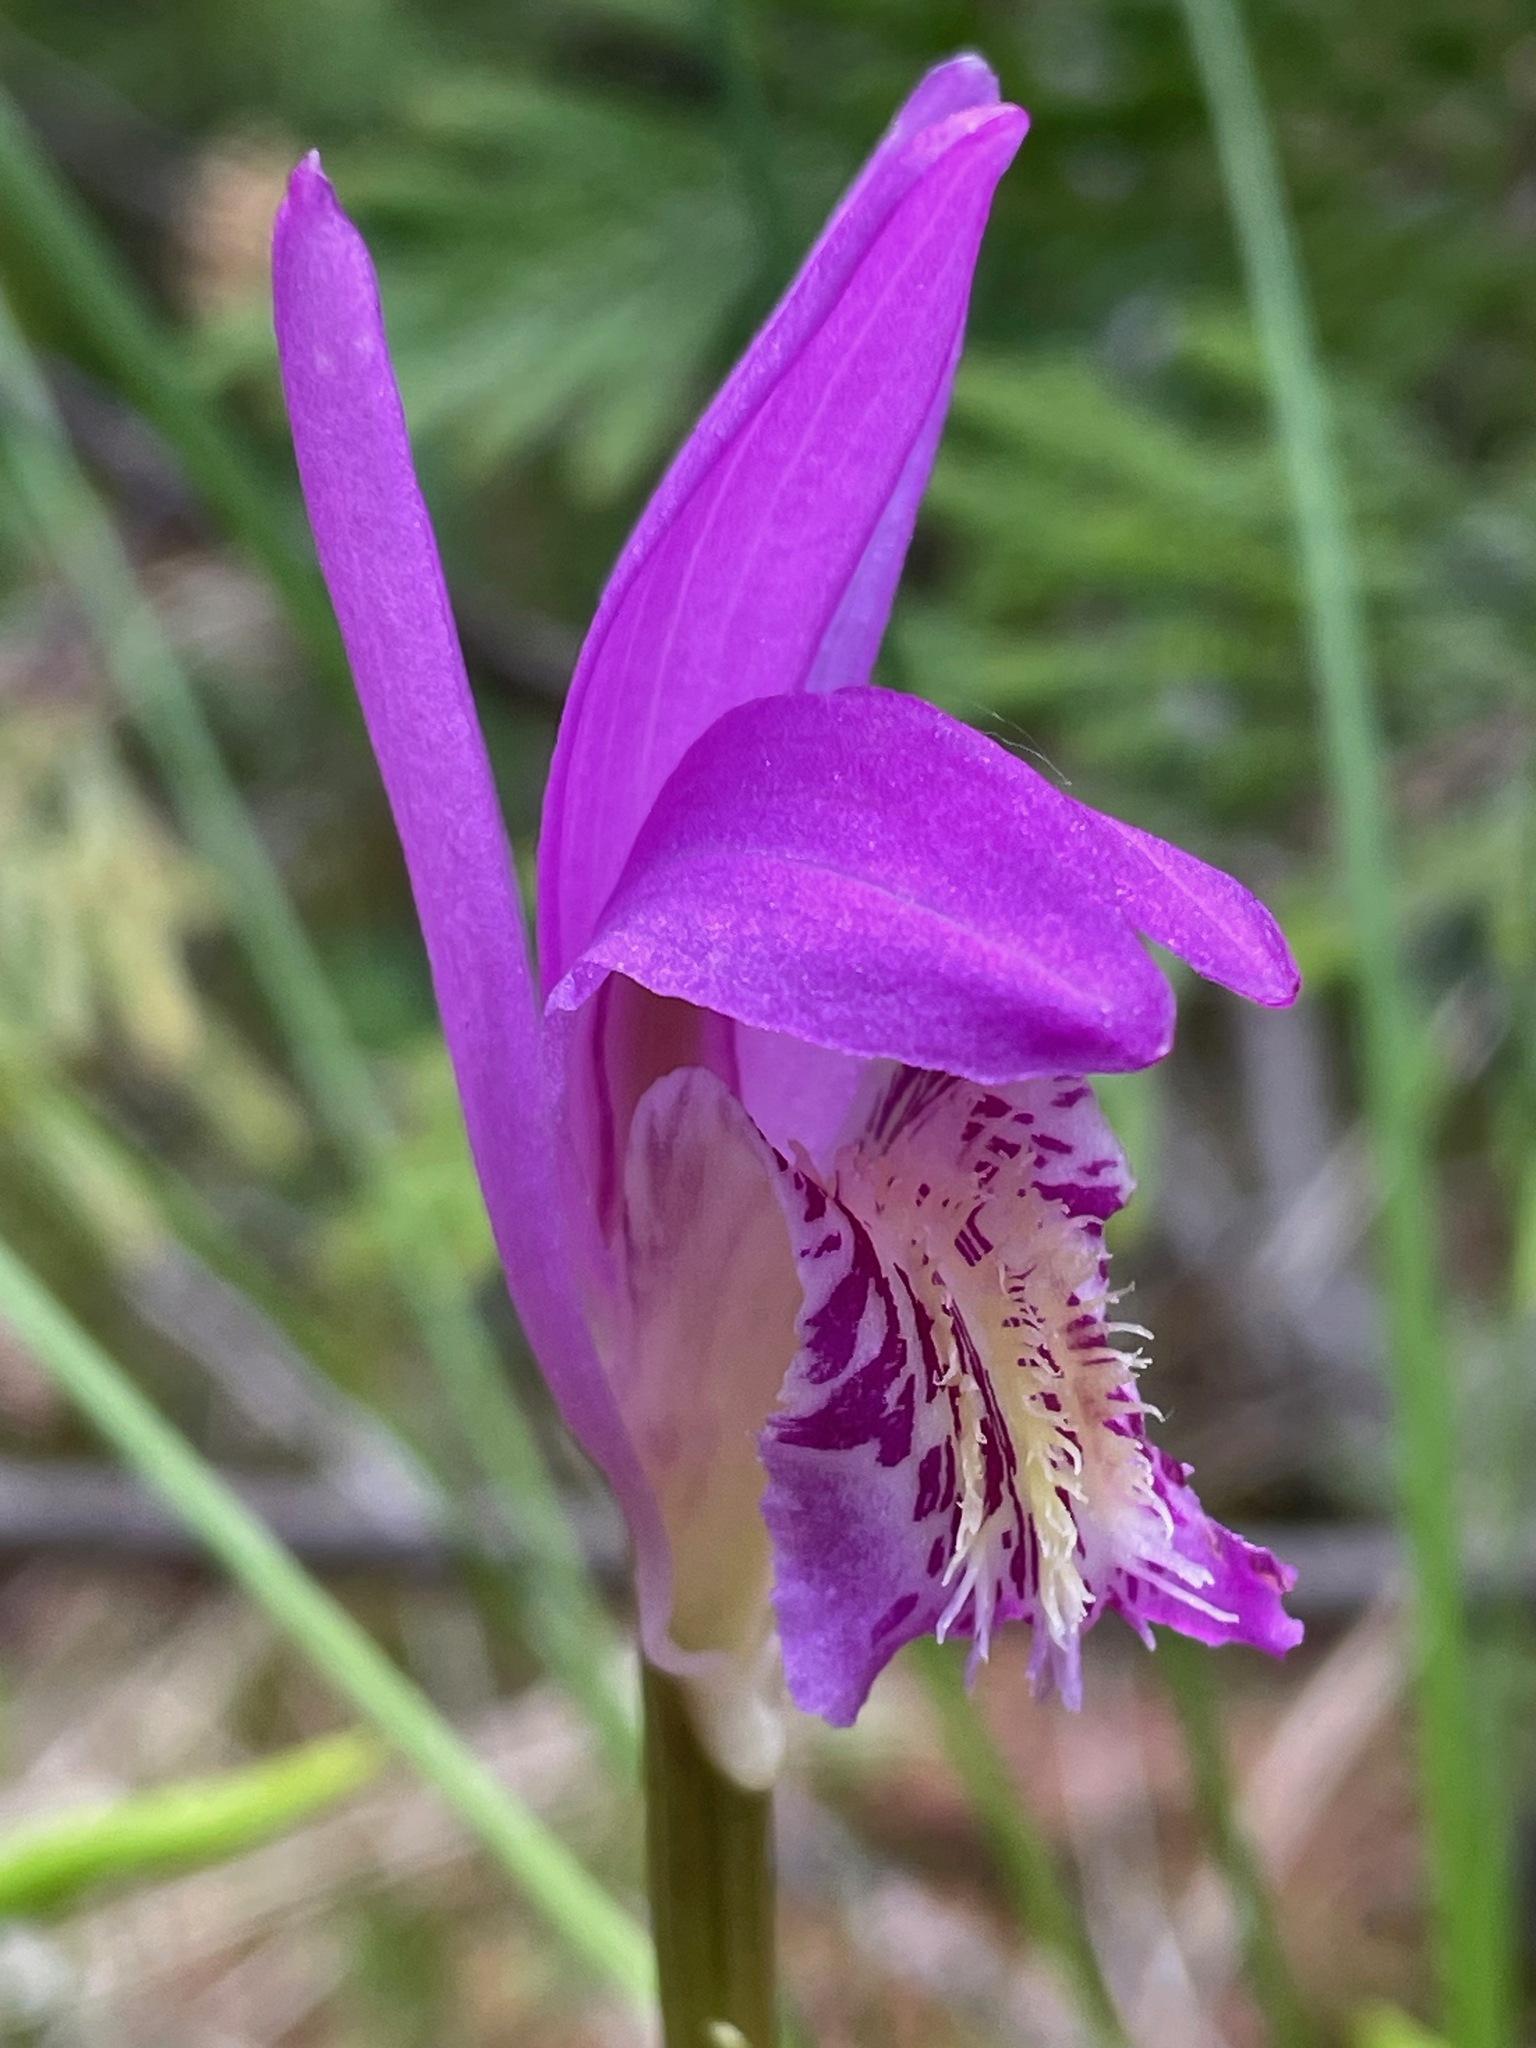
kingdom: Plantae
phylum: Tracheophyta
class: Liliopsida
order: Asparagales
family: Orchidaceae
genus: Arethusa
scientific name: Arethusa bulbosa
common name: Arethusa
